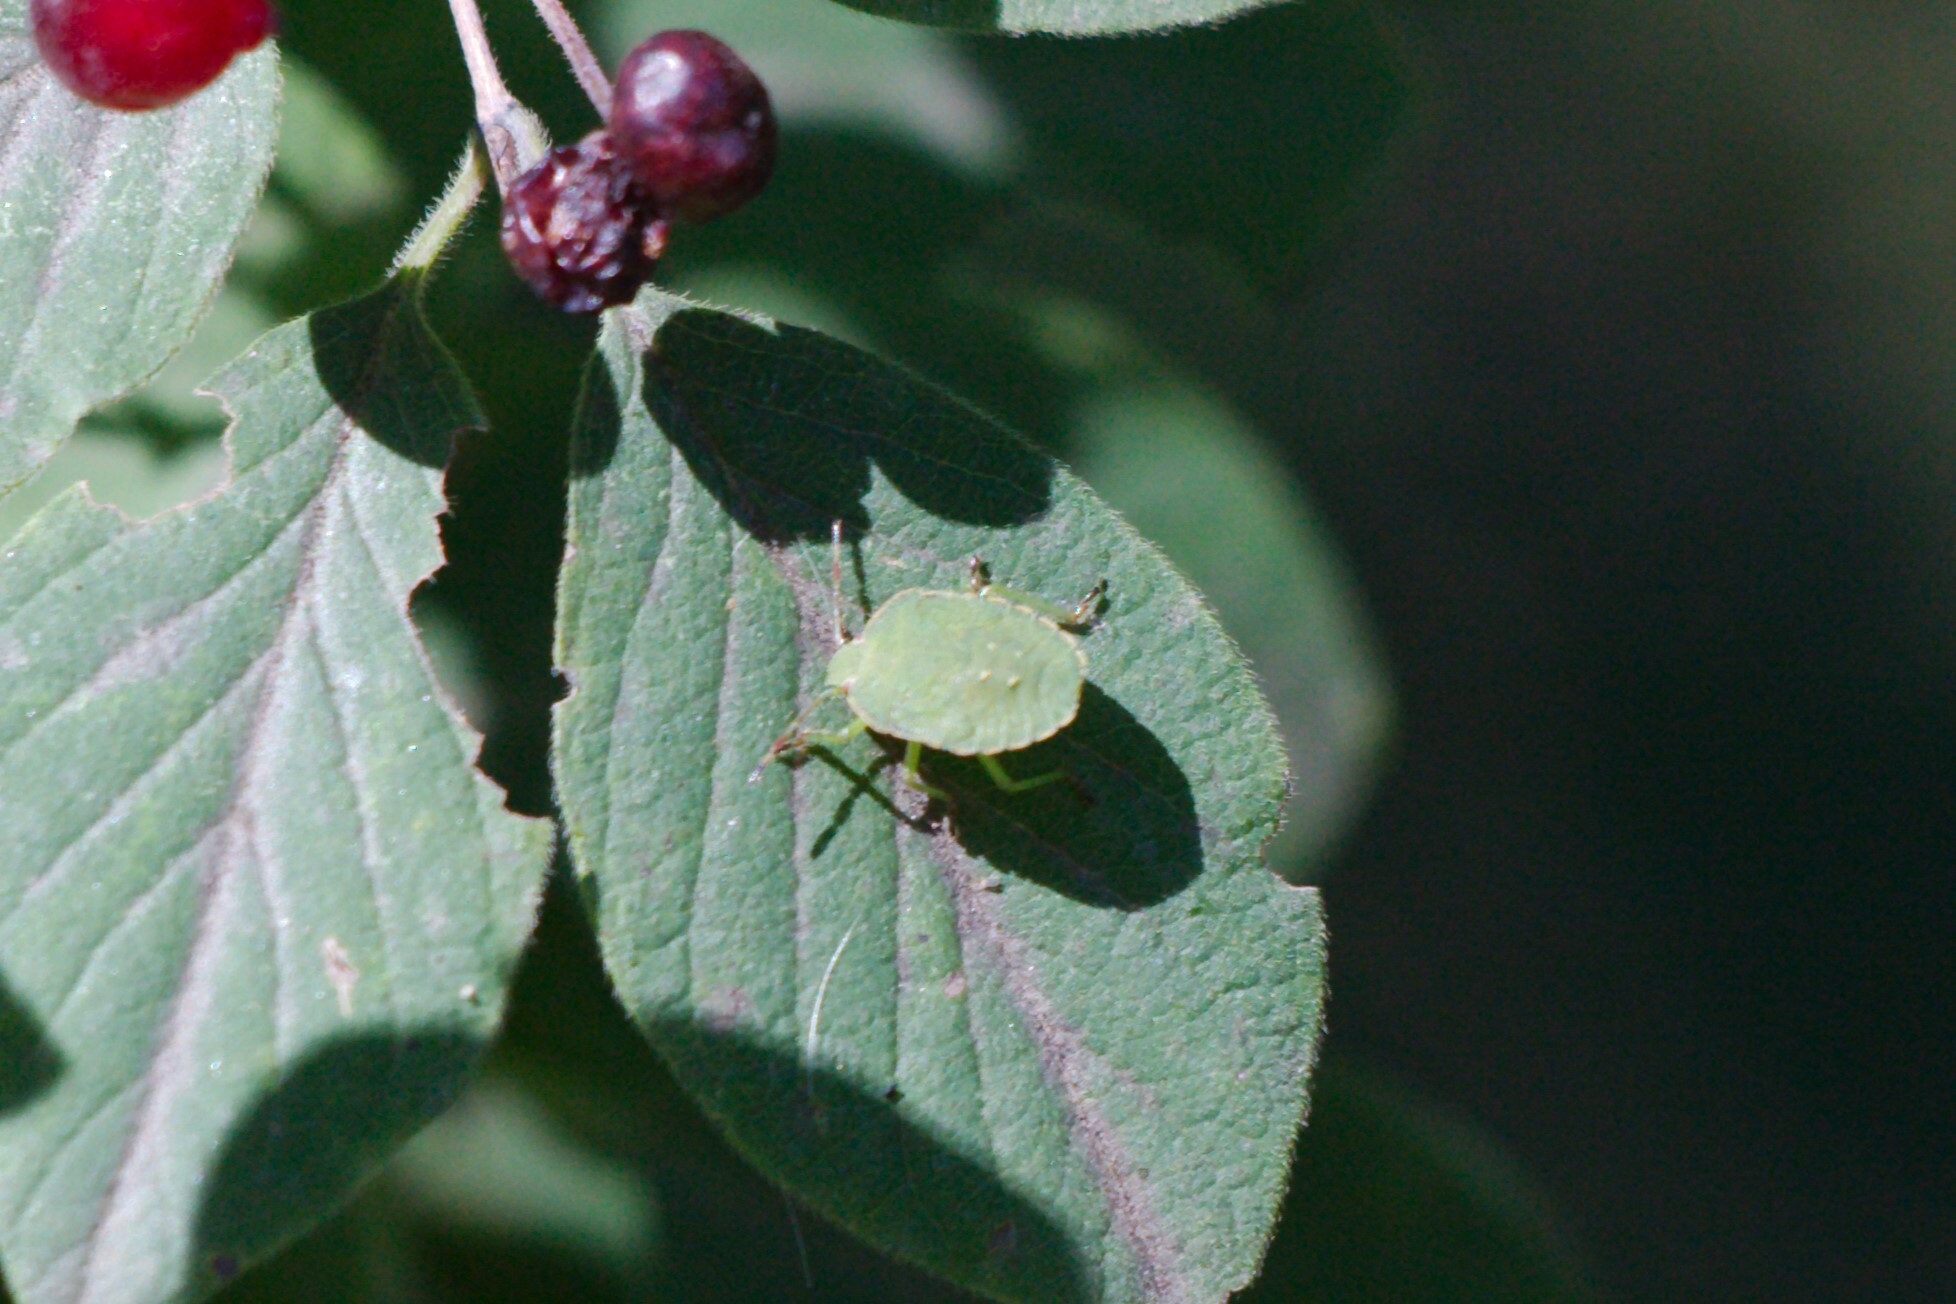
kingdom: Animalia
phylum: Arthropoda
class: Insecta
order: Hemiptera
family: Pentatomidae
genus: Palomena
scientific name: Palomena prasina
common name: Green shieldbug
